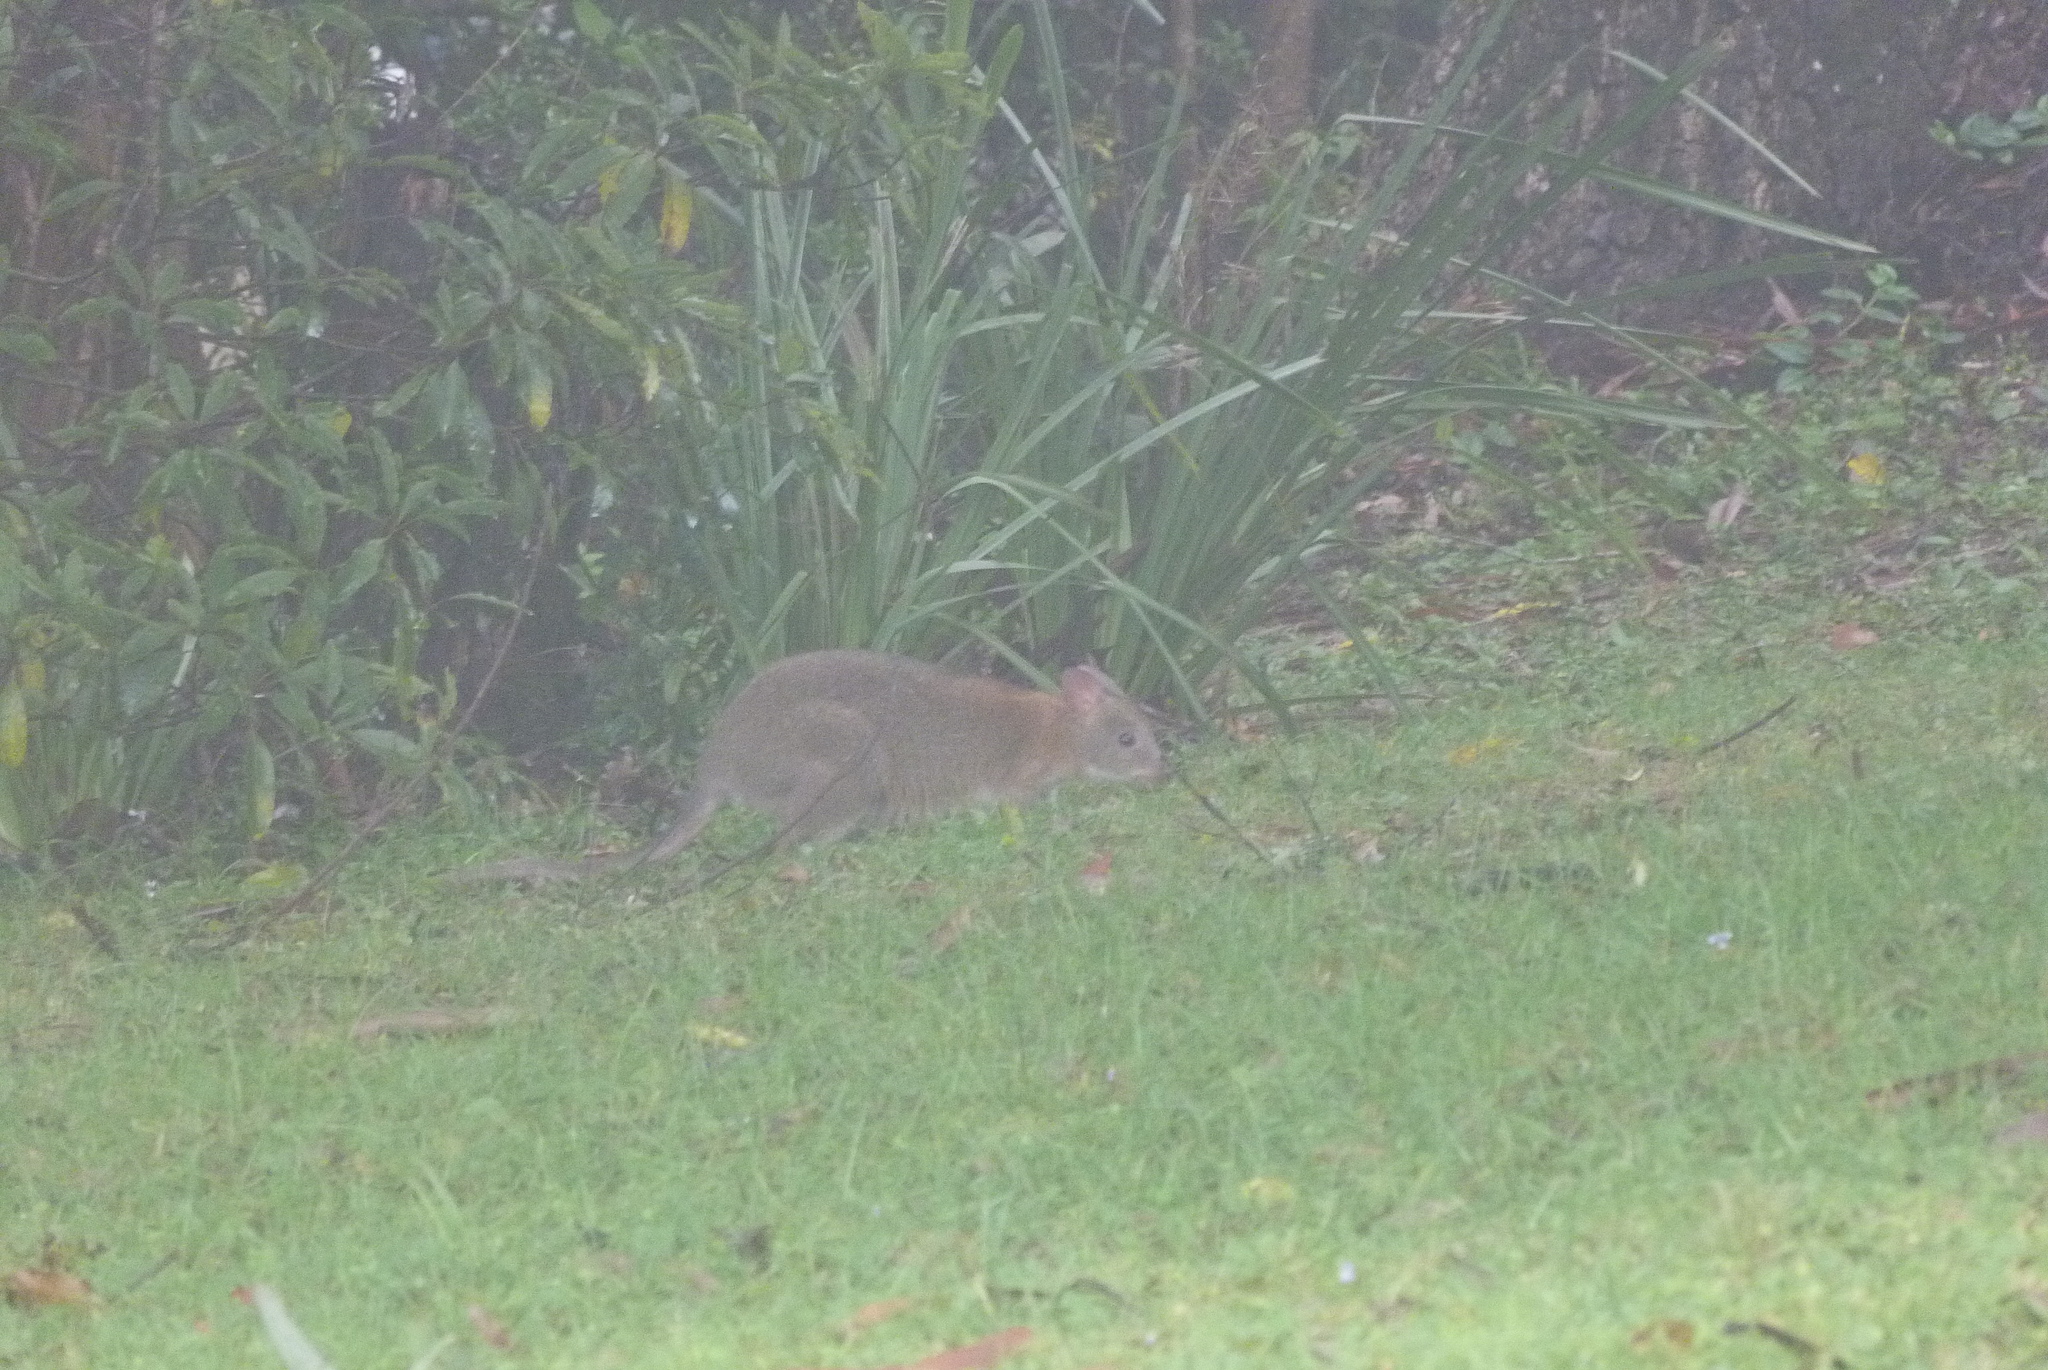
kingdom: Animalia
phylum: Chordata
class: Mammalia
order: Diprotodontia
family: Macropodidae
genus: Thylogale
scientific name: Thylogale thetis
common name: Red-necked pademelon
